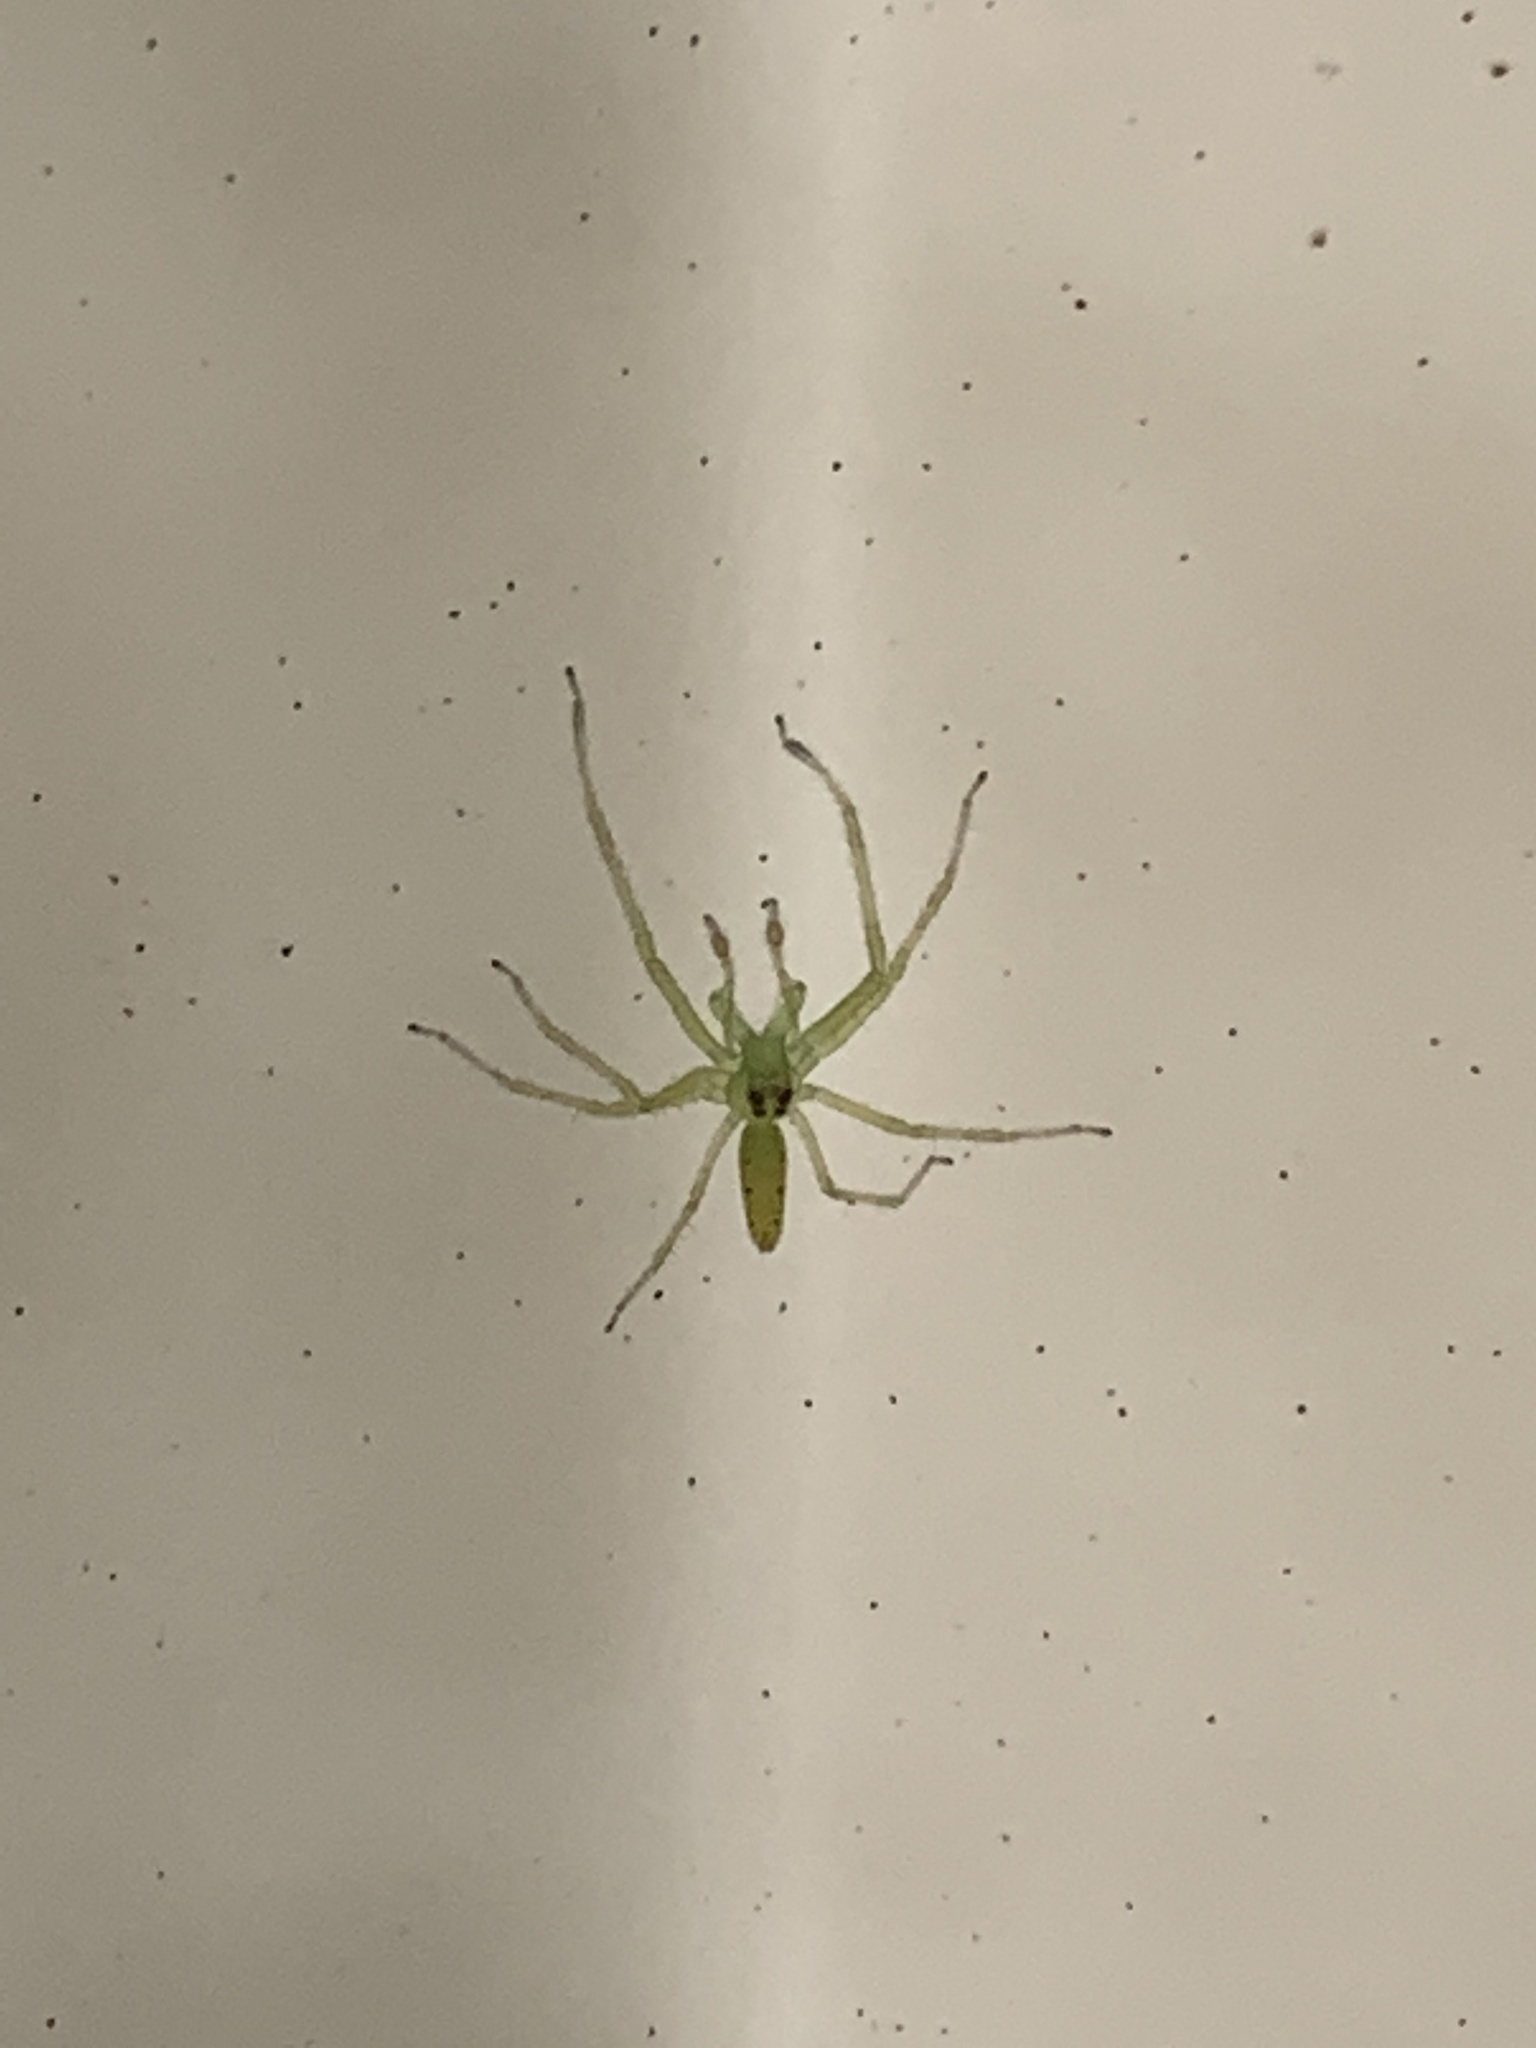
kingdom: Animalia
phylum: Arthropoda
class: Arachnida
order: Araneae
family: Salticidae
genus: Lyssomanes
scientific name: Lyssomanes viridis
